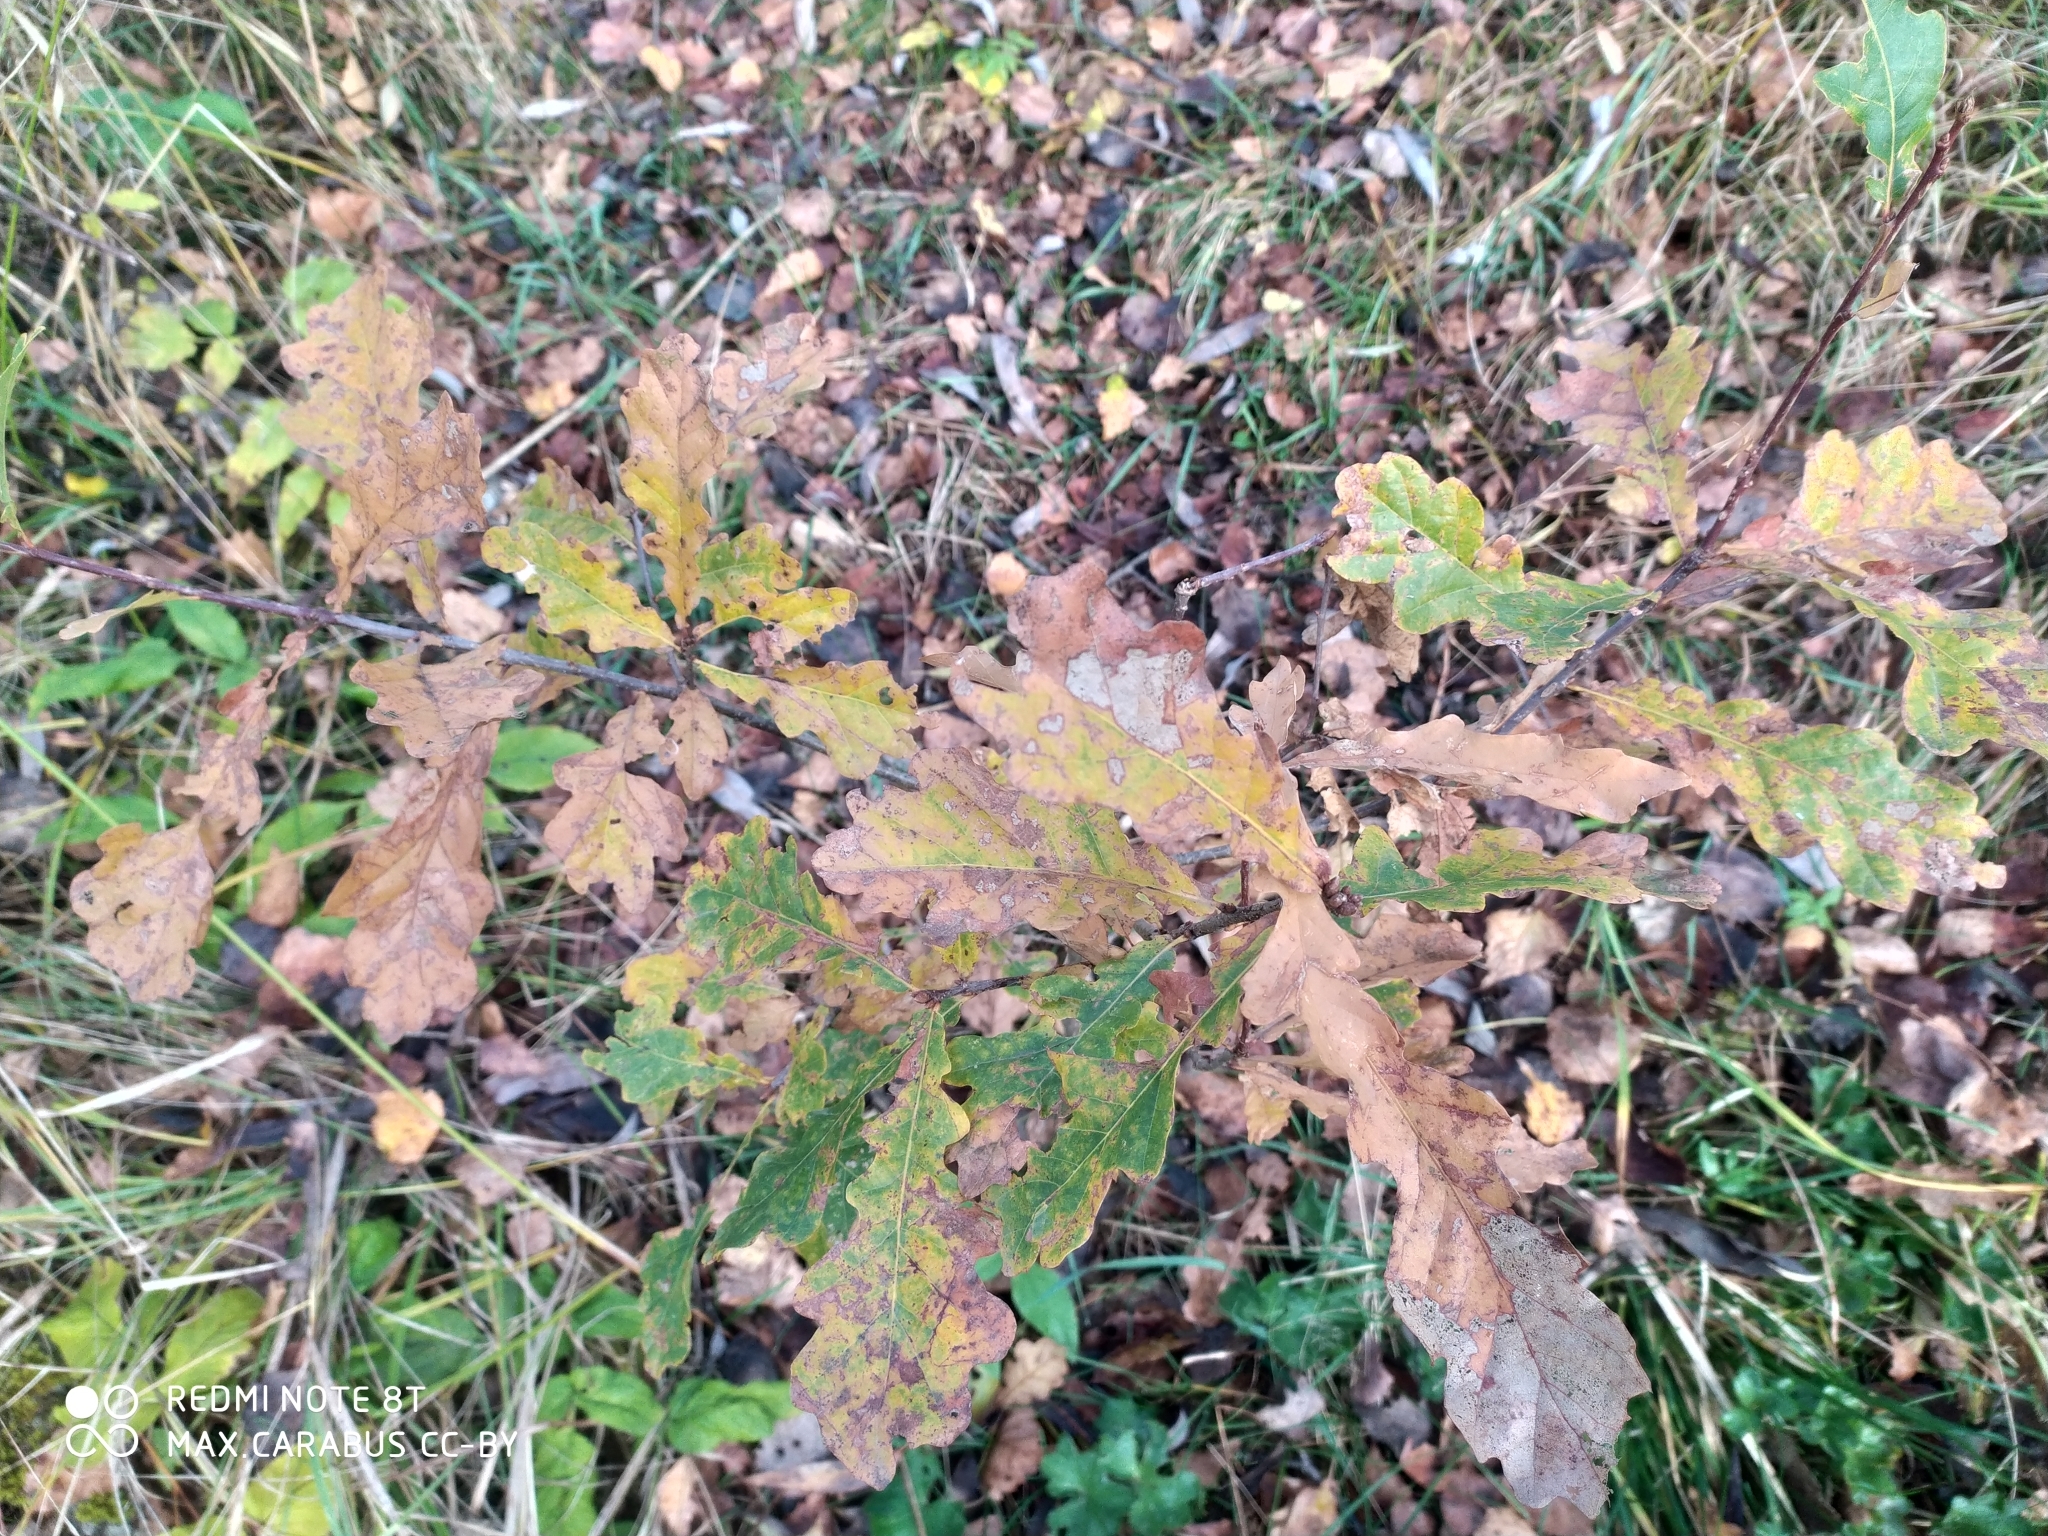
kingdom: Plantae
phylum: Tracheophyta
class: Magnoliopsida
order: Fagales
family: Fagaceae
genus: Quercus
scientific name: Quercus robur
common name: Pedunculate oak
